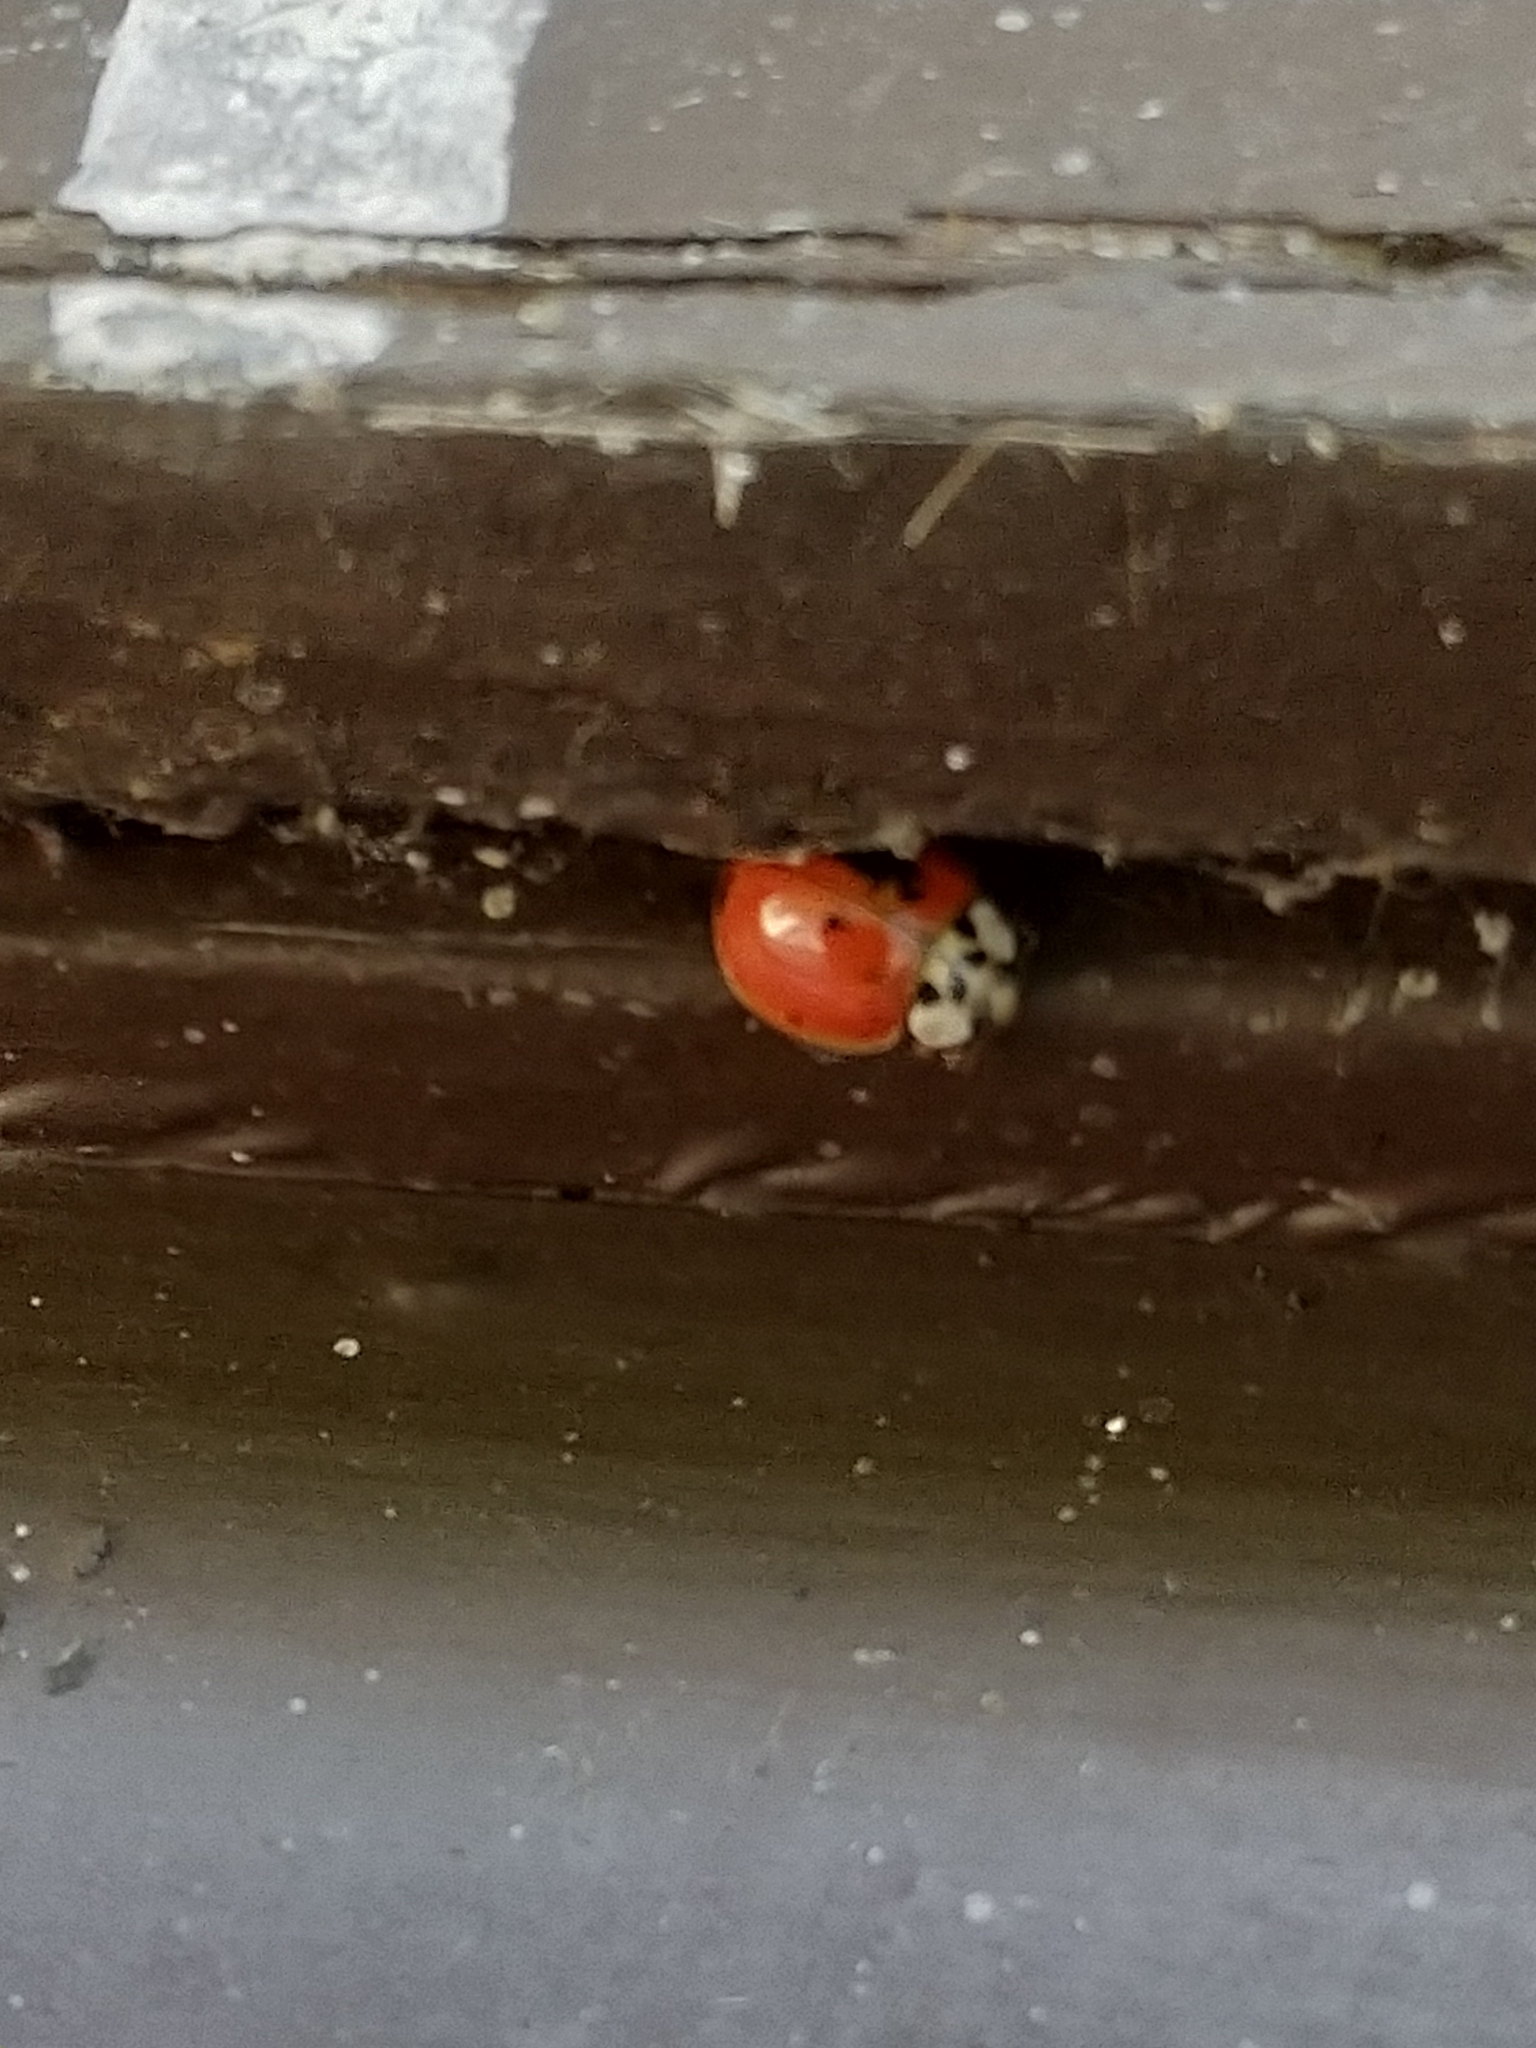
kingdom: Animalia
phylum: Arthropoda
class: Insecta
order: Coleoptera
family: Coccinellidae
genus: Harmonia
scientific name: Harmonia axyridis
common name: Harlequin ladybird
